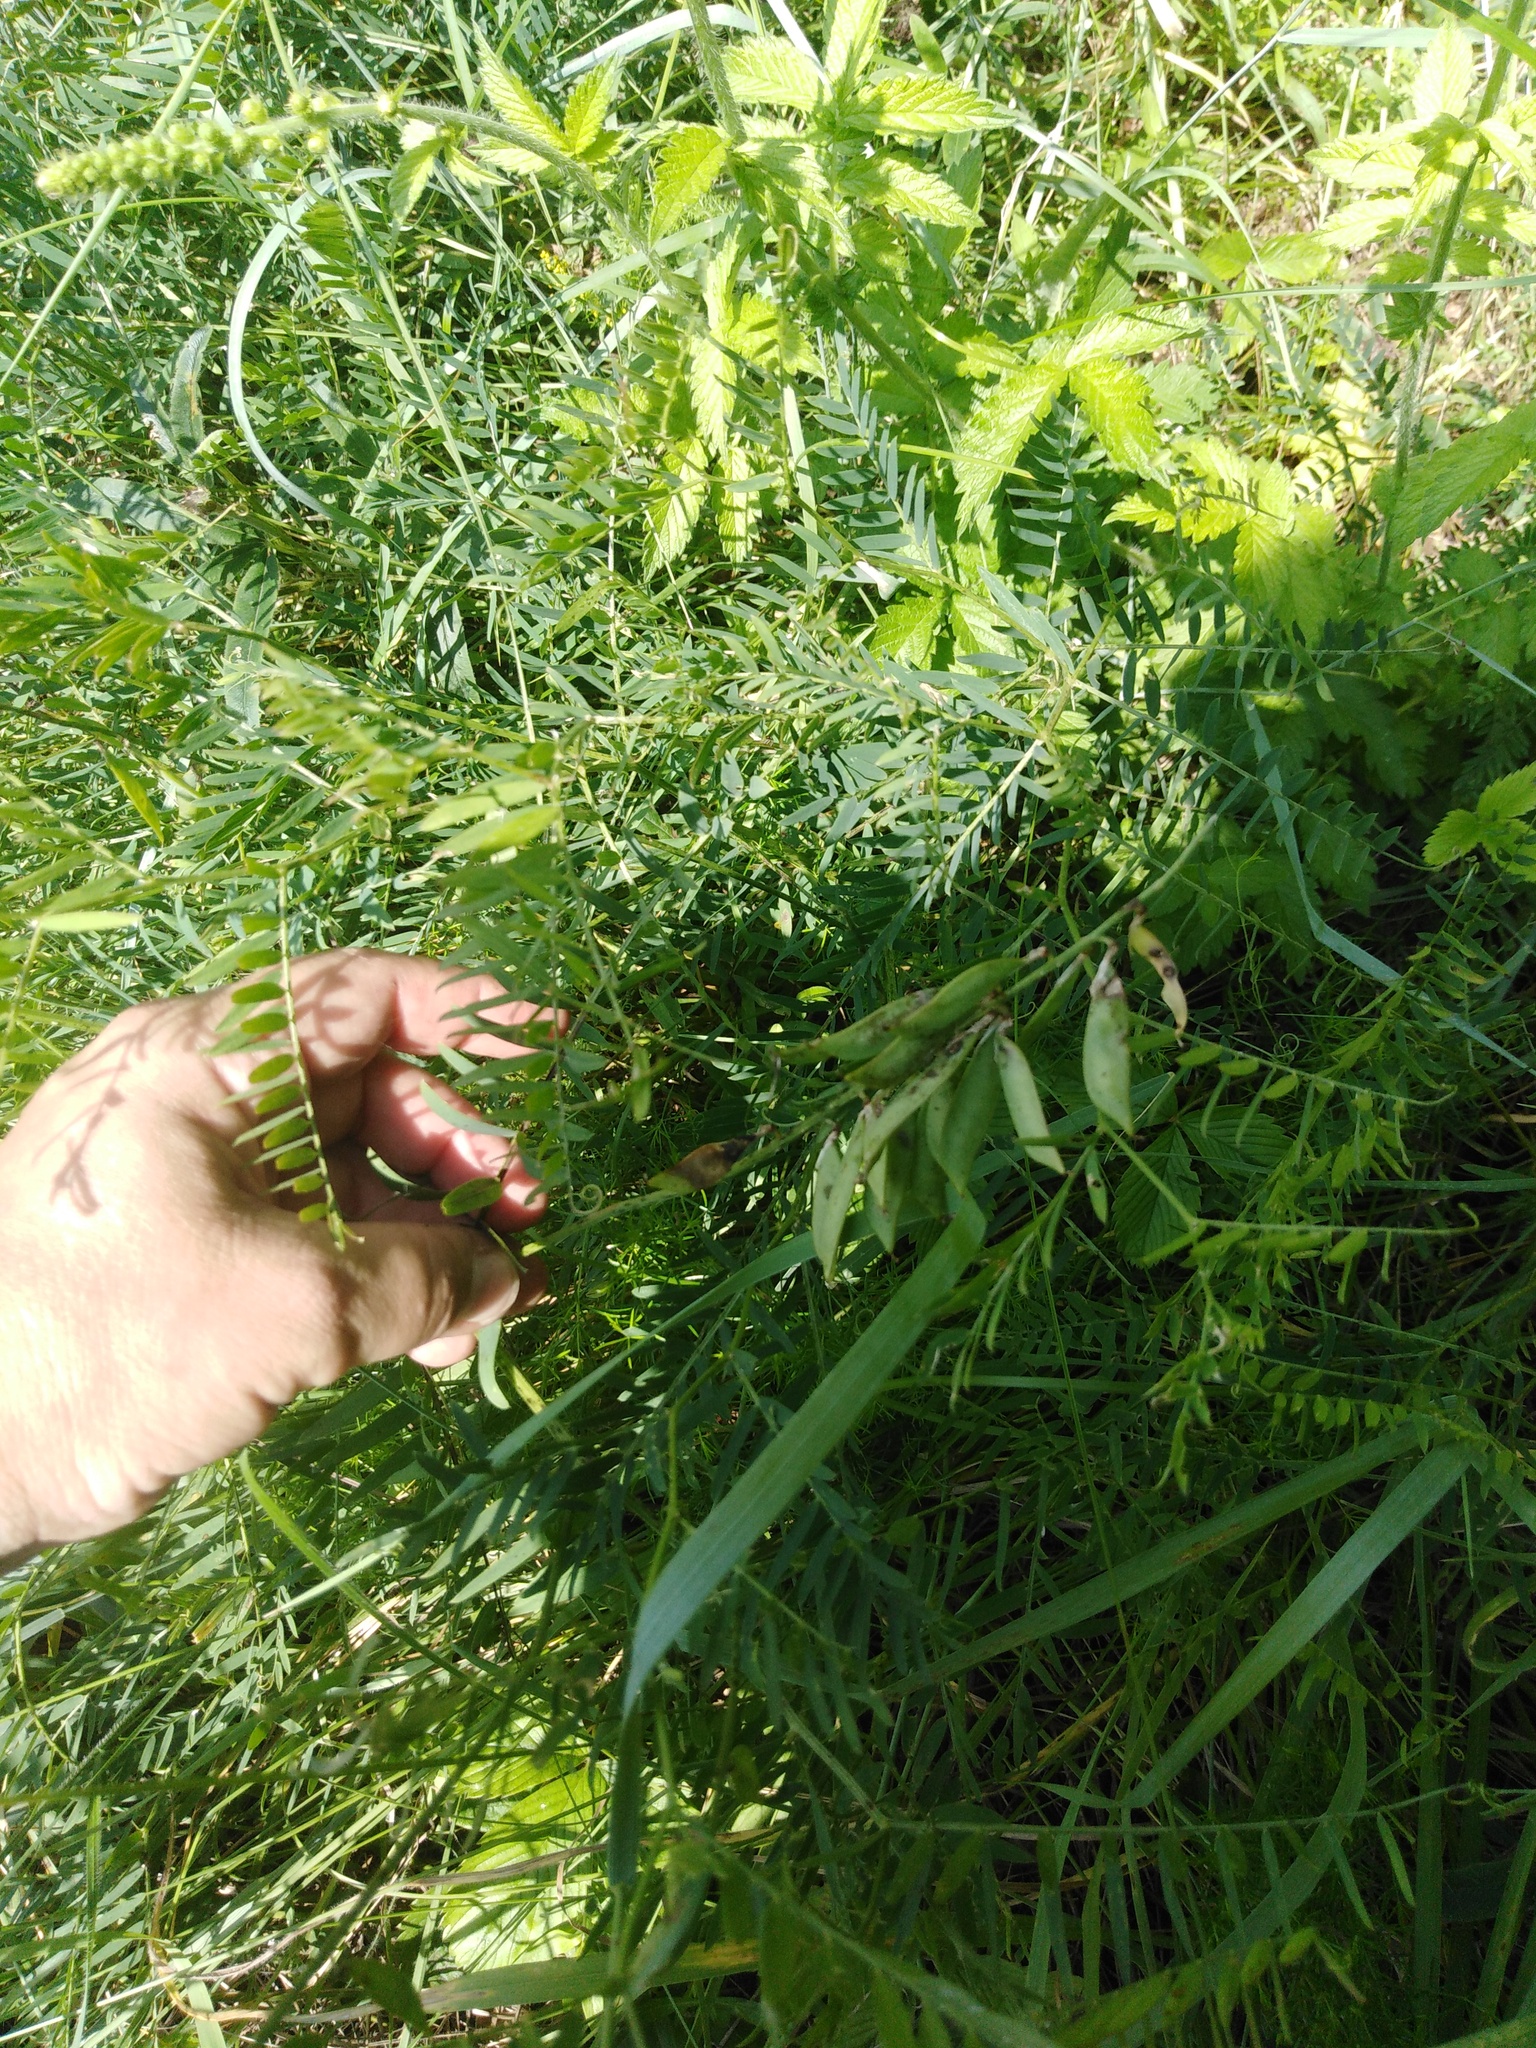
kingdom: Plantae
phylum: Tracheophyta
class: Magnoliopsida
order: Fabales
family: Fabaceae
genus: Vicia
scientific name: Vicia tenuifolia
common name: Fine-leaved vetch
